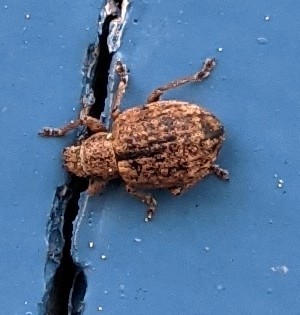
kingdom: Animalia
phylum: Arthropoda
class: Insecta
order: Coleoptera
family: Curculionidae
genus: Strophosoma
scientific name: Strophosoma melanogrammum
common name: Weevil
